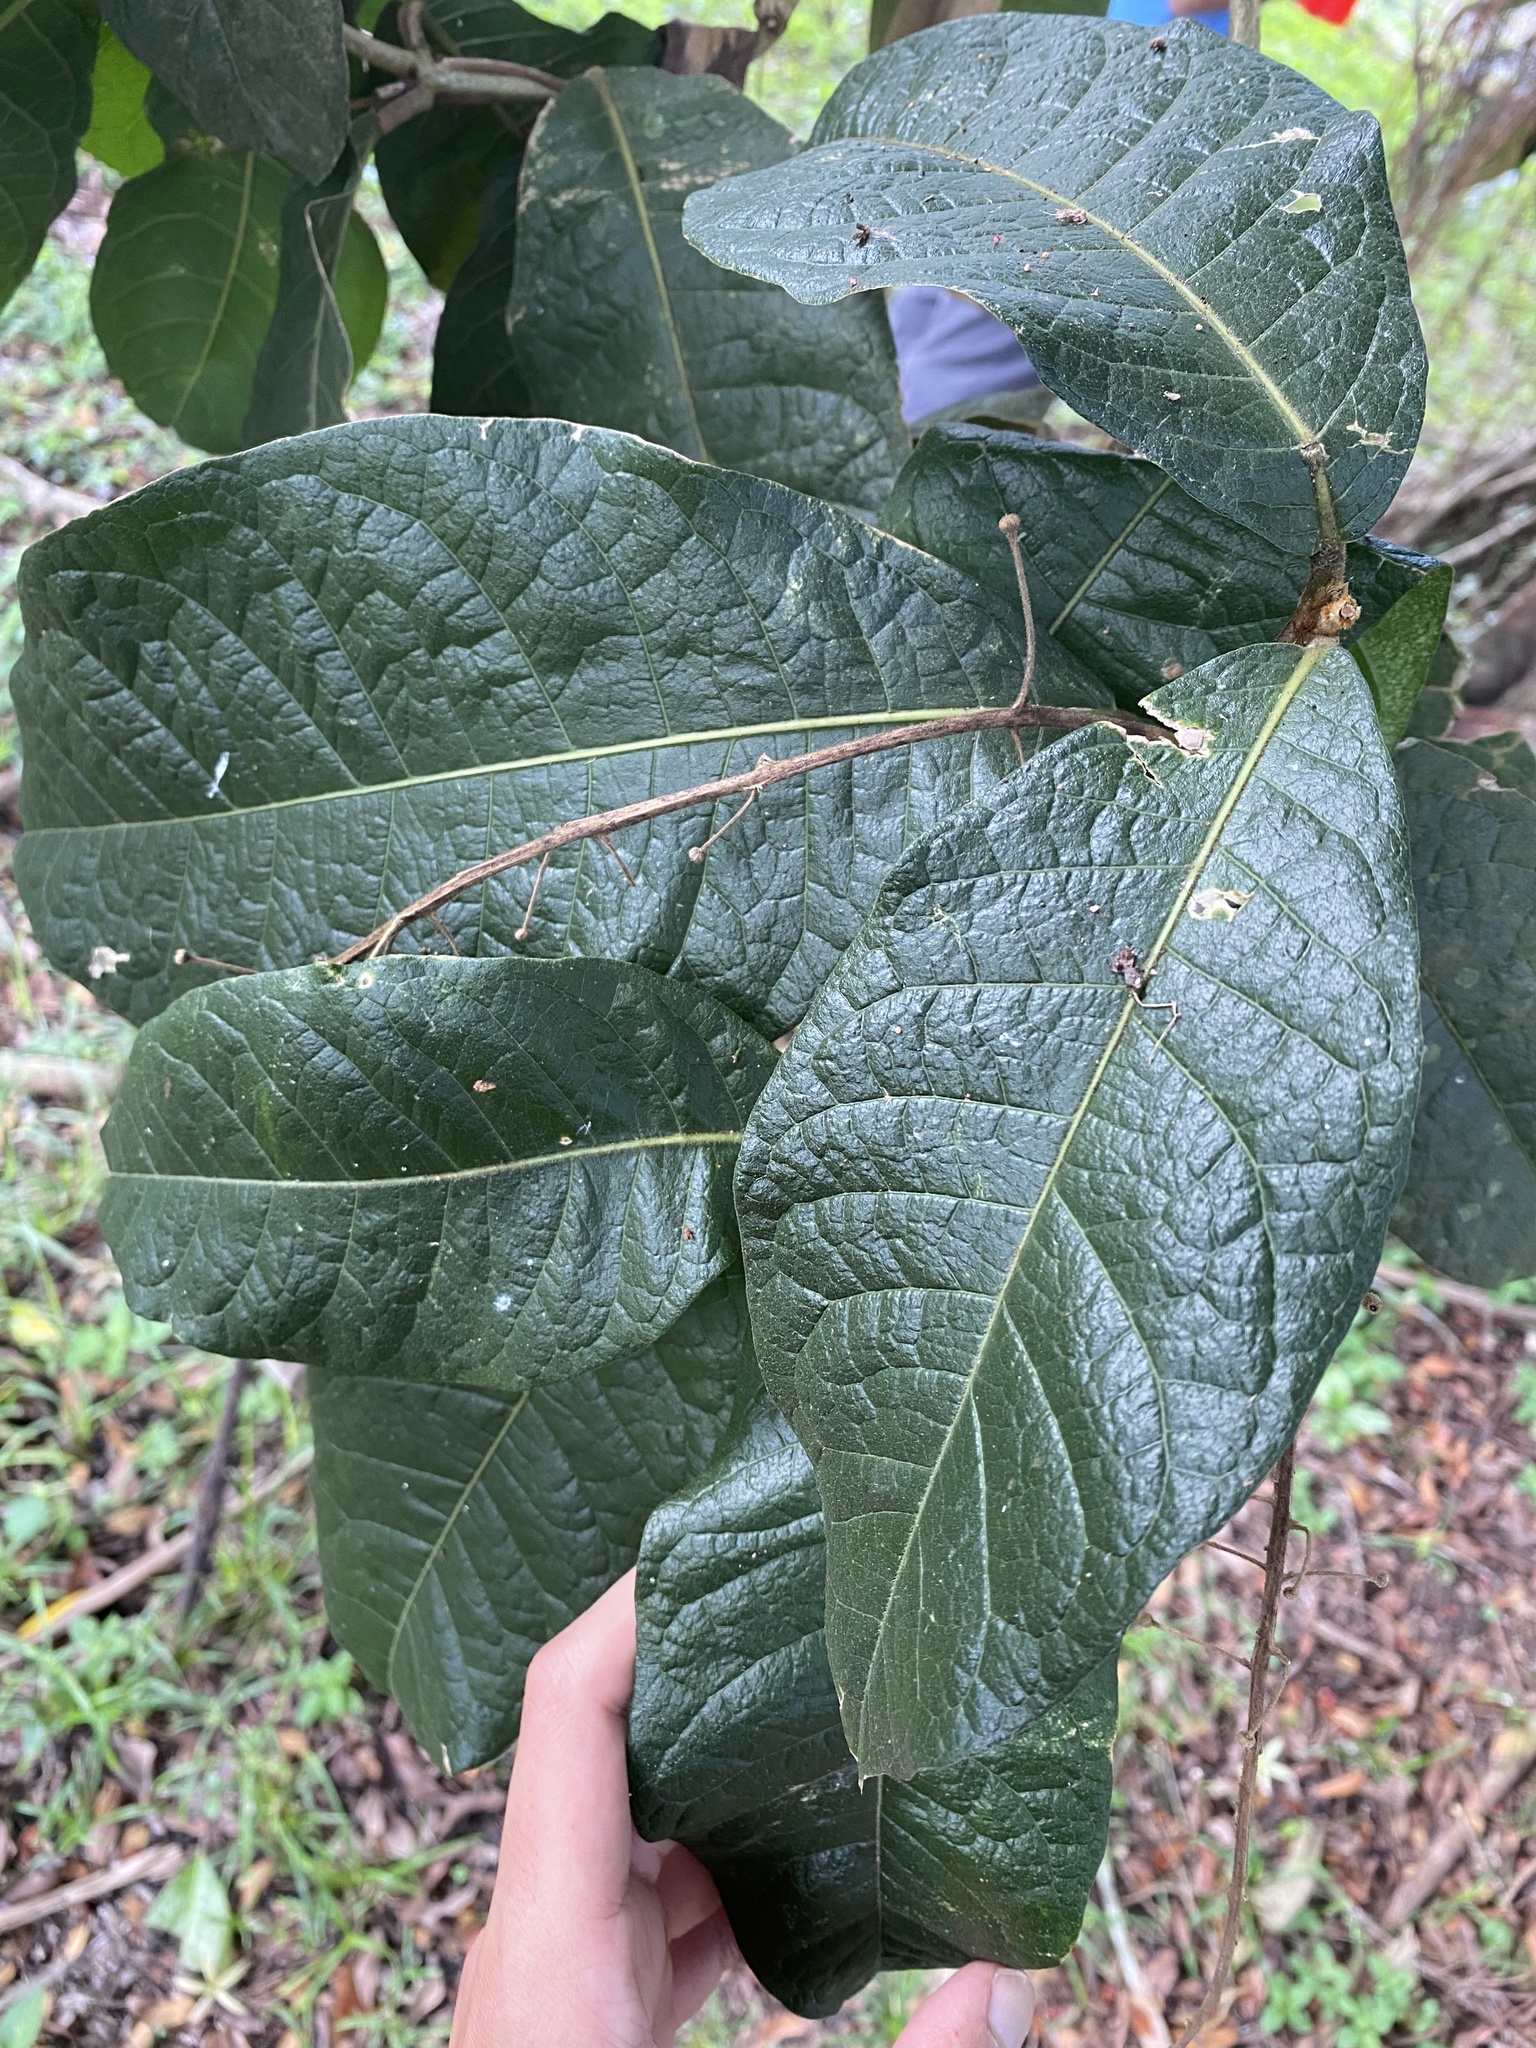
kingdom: Plantae
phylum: Tracheophyta
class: Magnoliopsida
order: Lamiales
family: Verbenaceae
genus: Petrea
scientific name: Petrea volubilis
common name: Queen's-wreath
